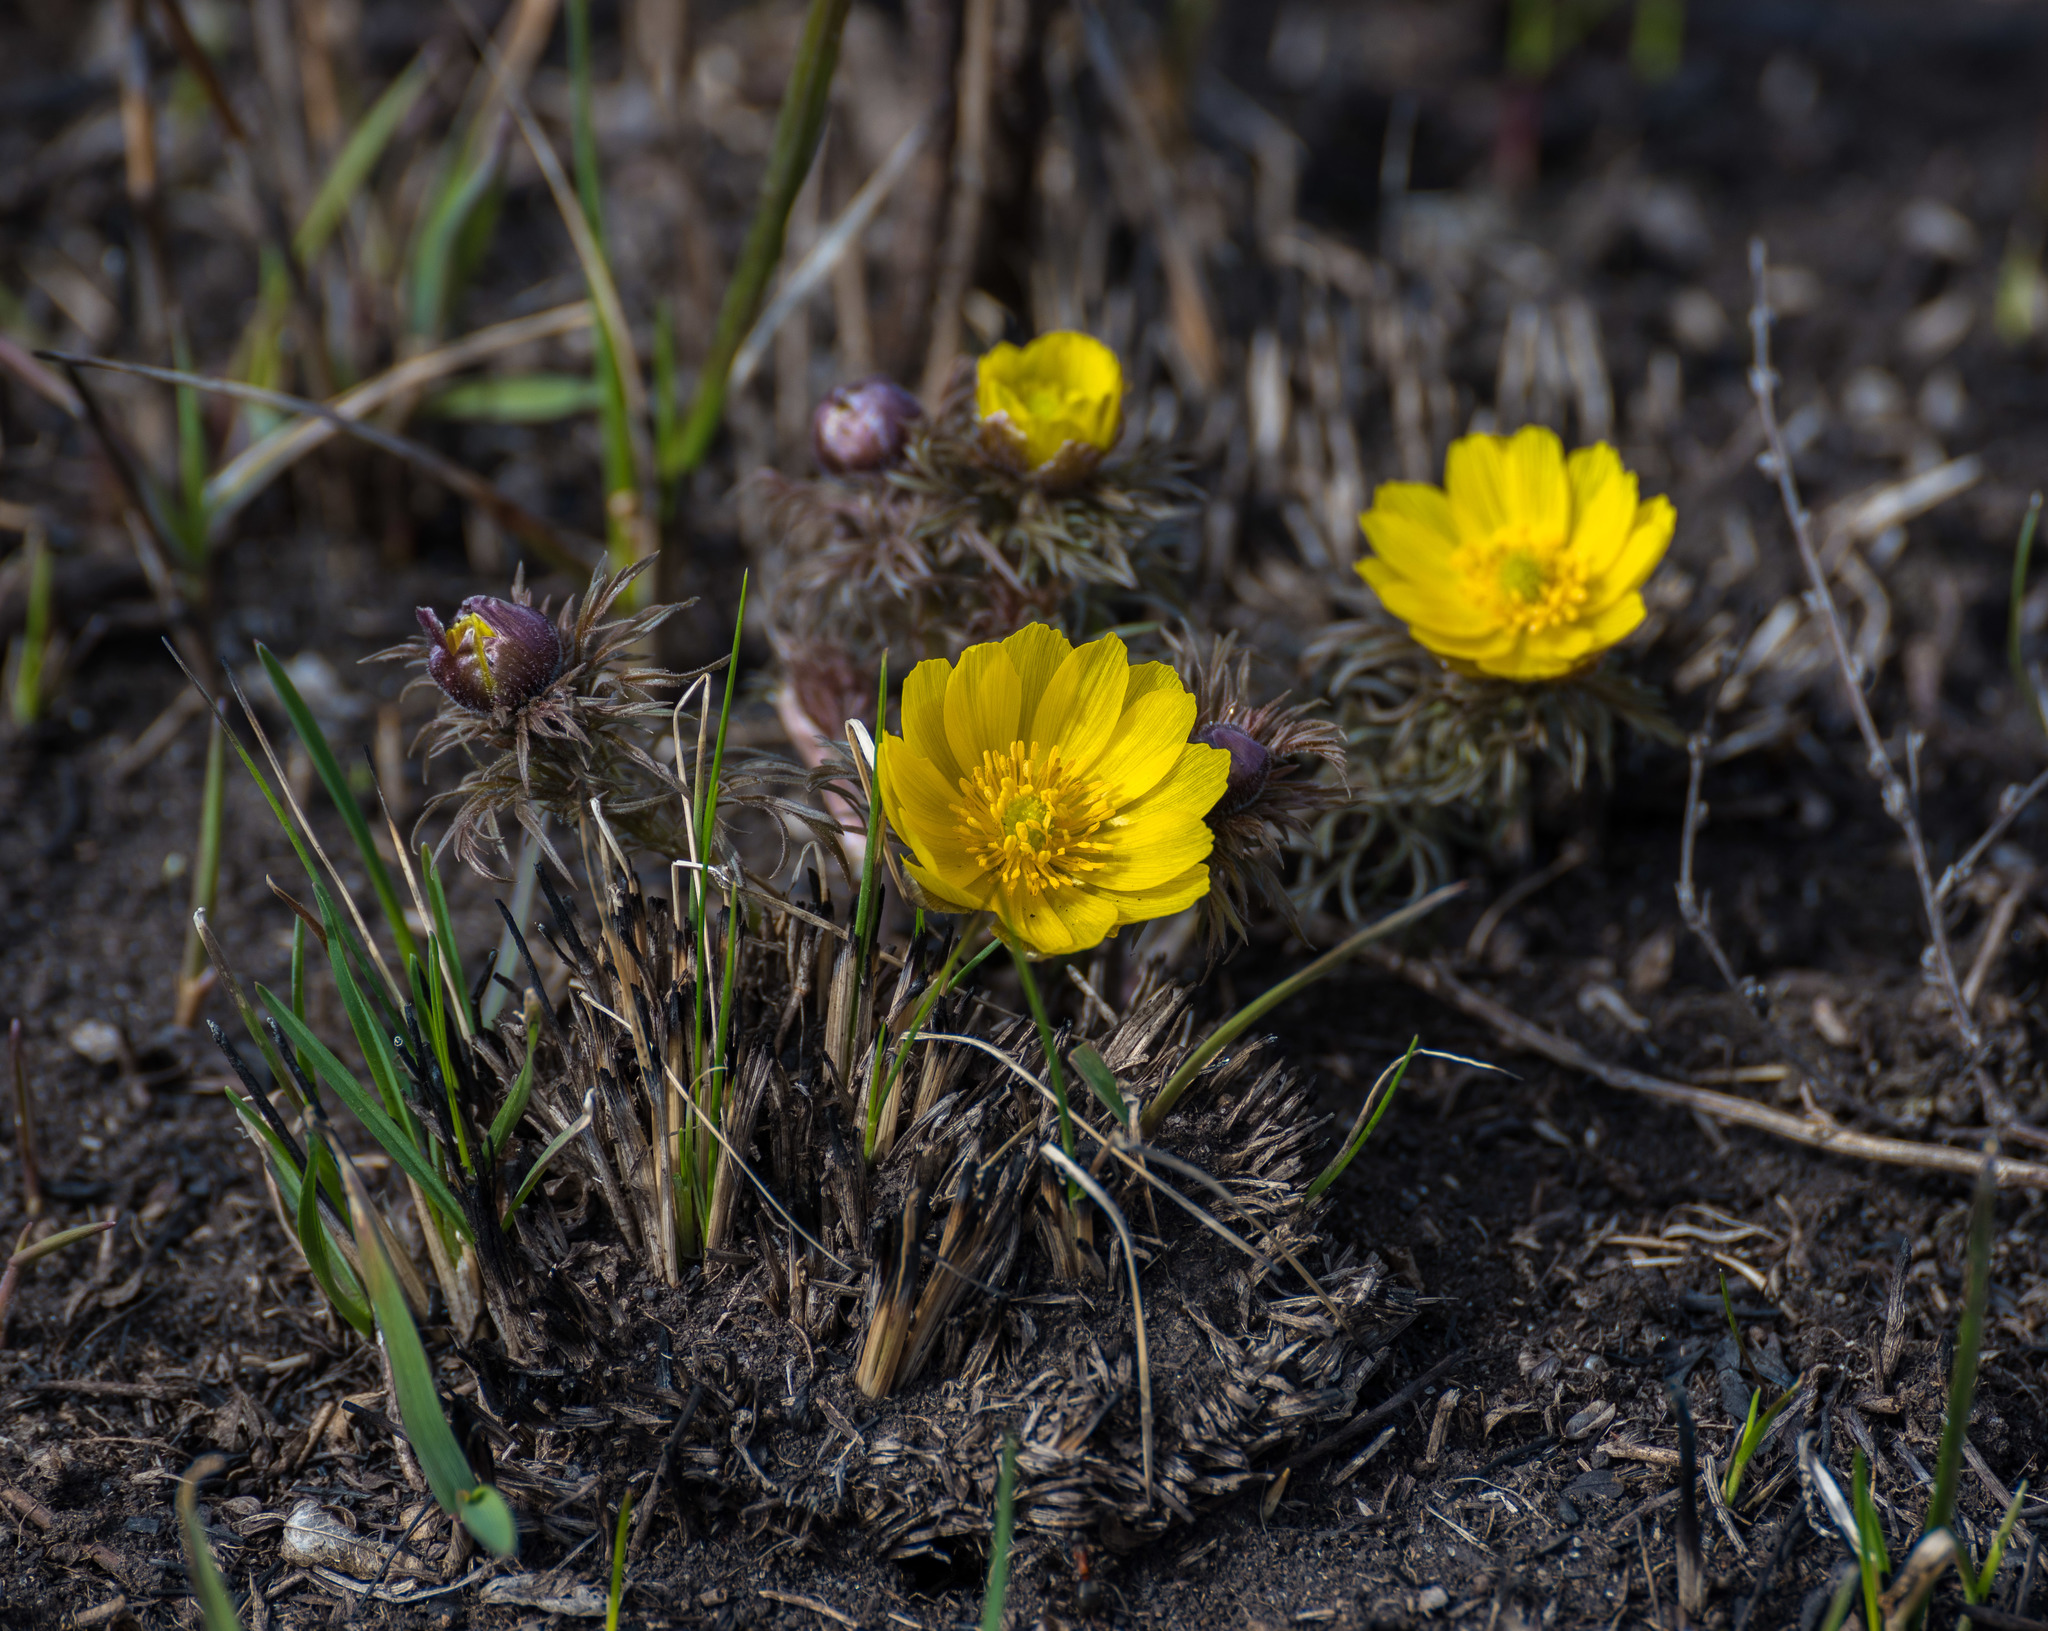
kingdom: Plantae
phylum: Tracheophyta
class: Magnoliopsida
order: Ranunculales
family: Ranunculaceae
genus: Adonis
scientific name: Adonis vernalis
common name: Yellow pheasants-eye
